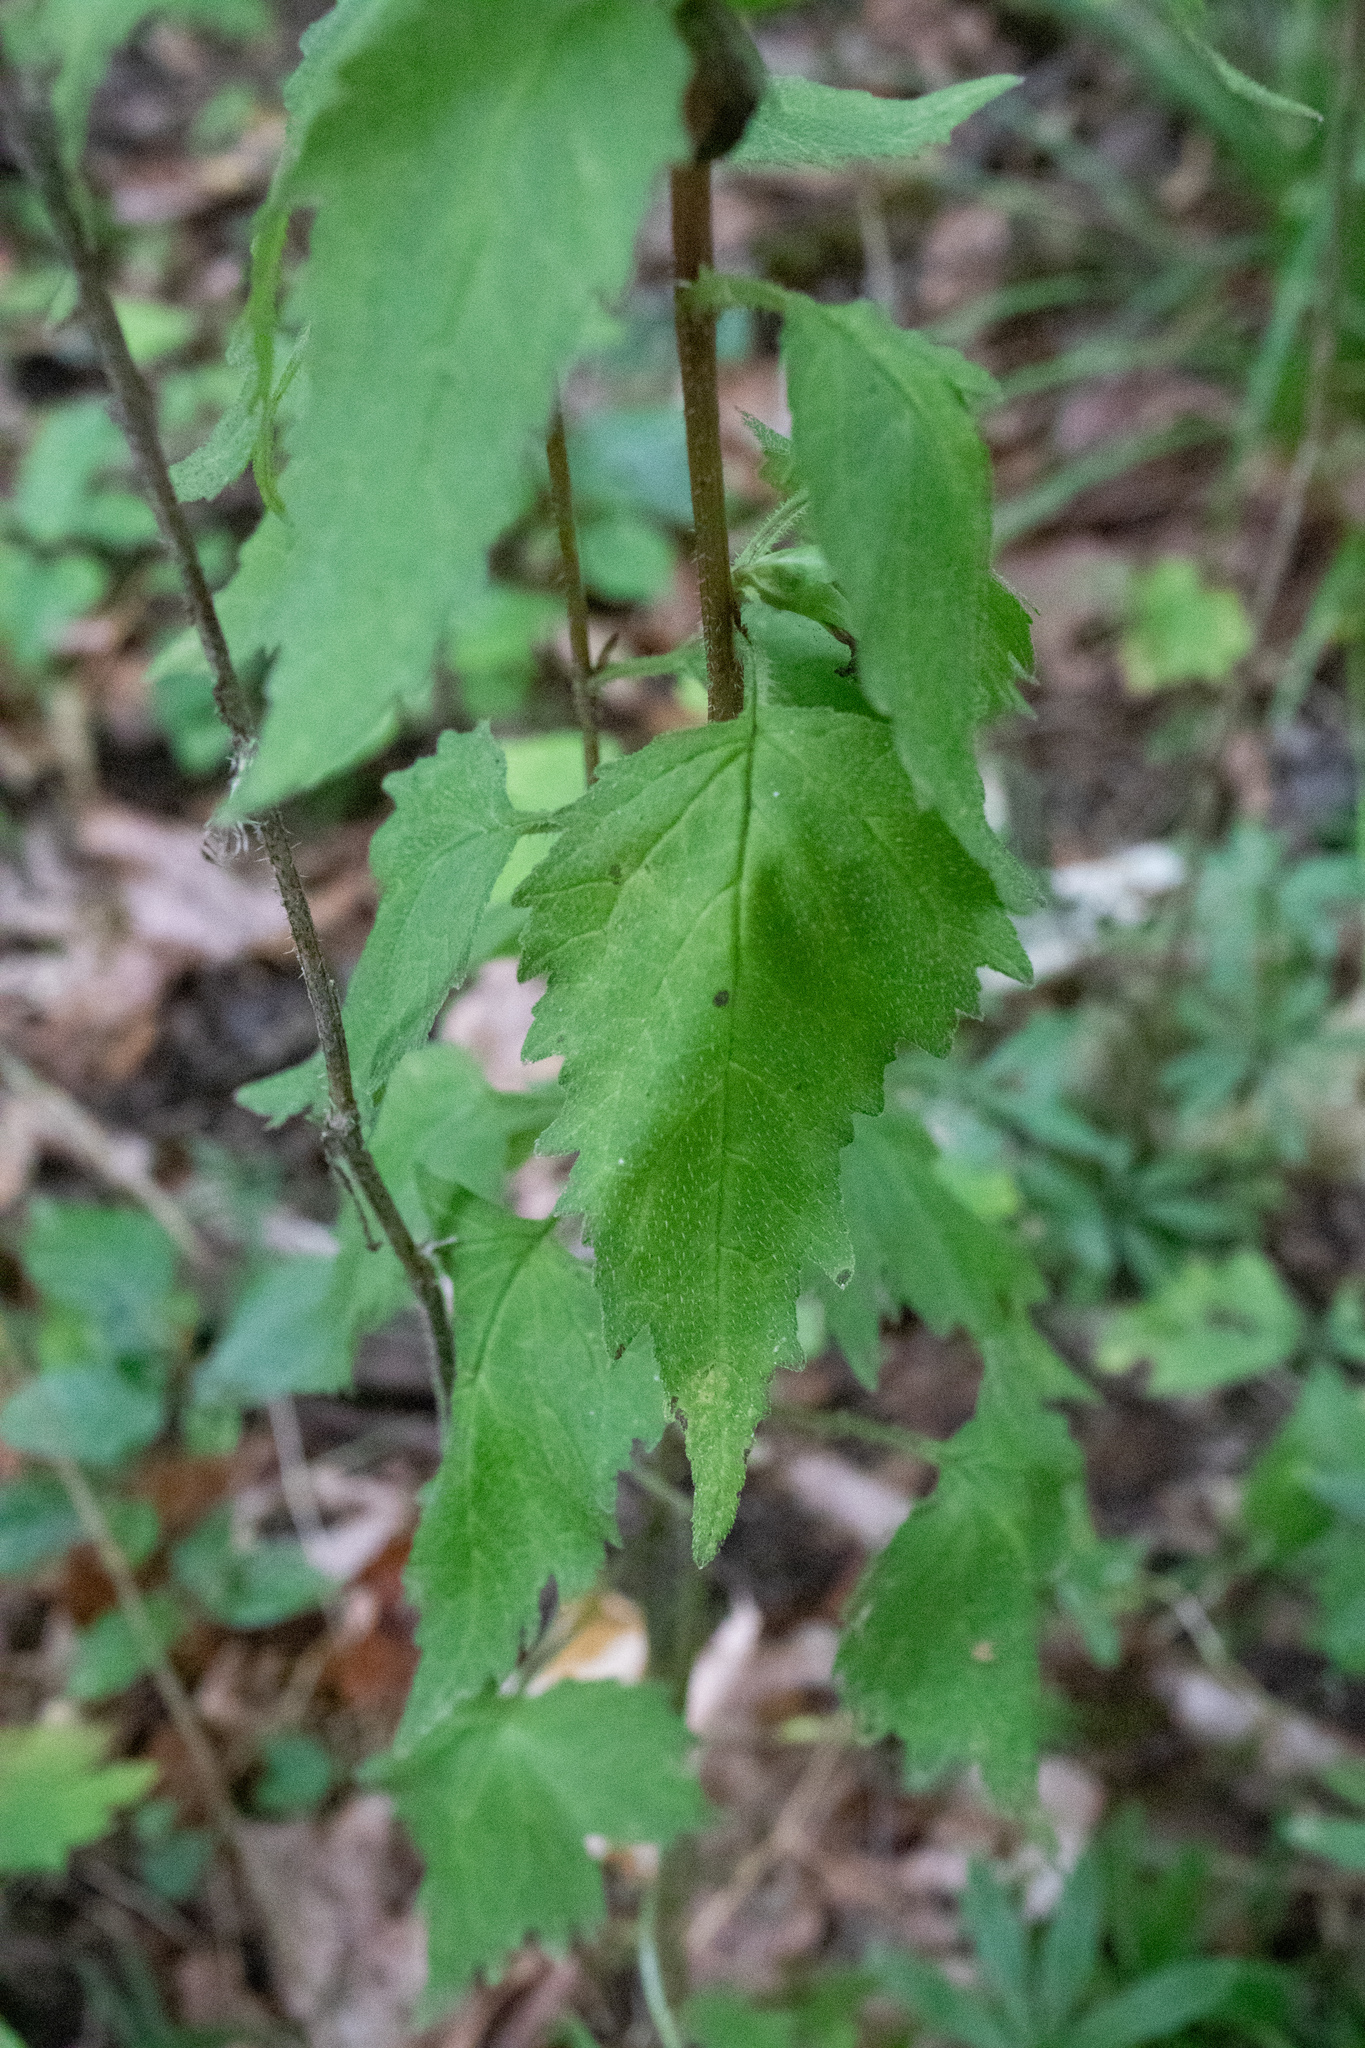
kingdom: Plantae
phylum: Tracheophyta
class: Magnoliopsida
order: Asterales
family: Campanulaceae
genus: Campanula
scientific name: Campanula trachelium
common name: Nettle-leaved bellflower
